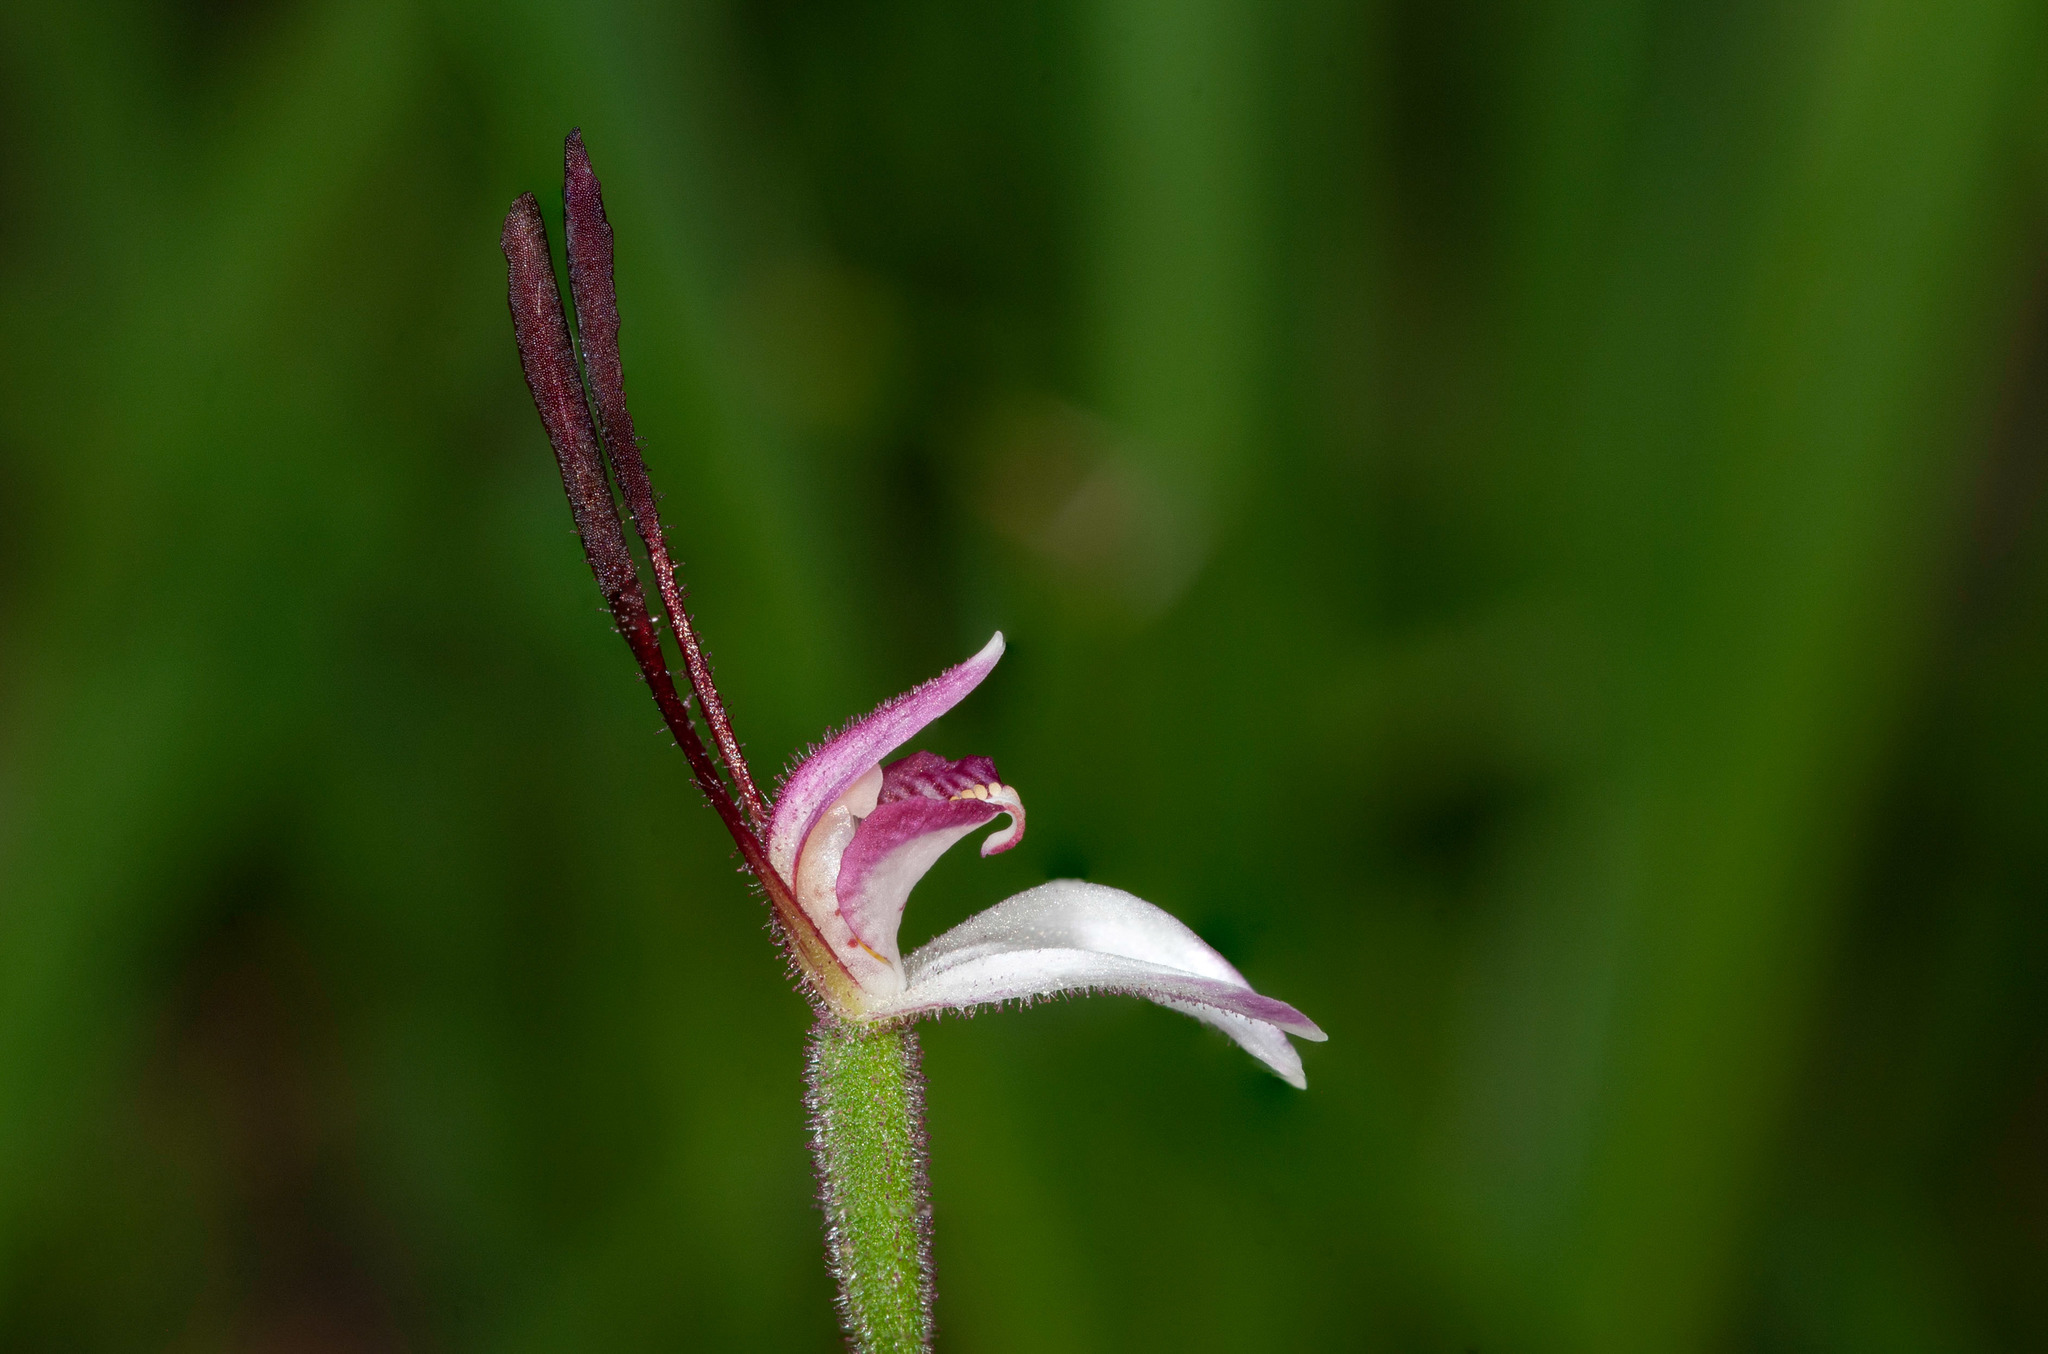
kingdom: Plantae
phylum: Tracheophyta
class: Liliopsida
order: Asparagales
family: Orchidaceae
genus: Leptoceras
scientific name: Leptoceras menziesii
